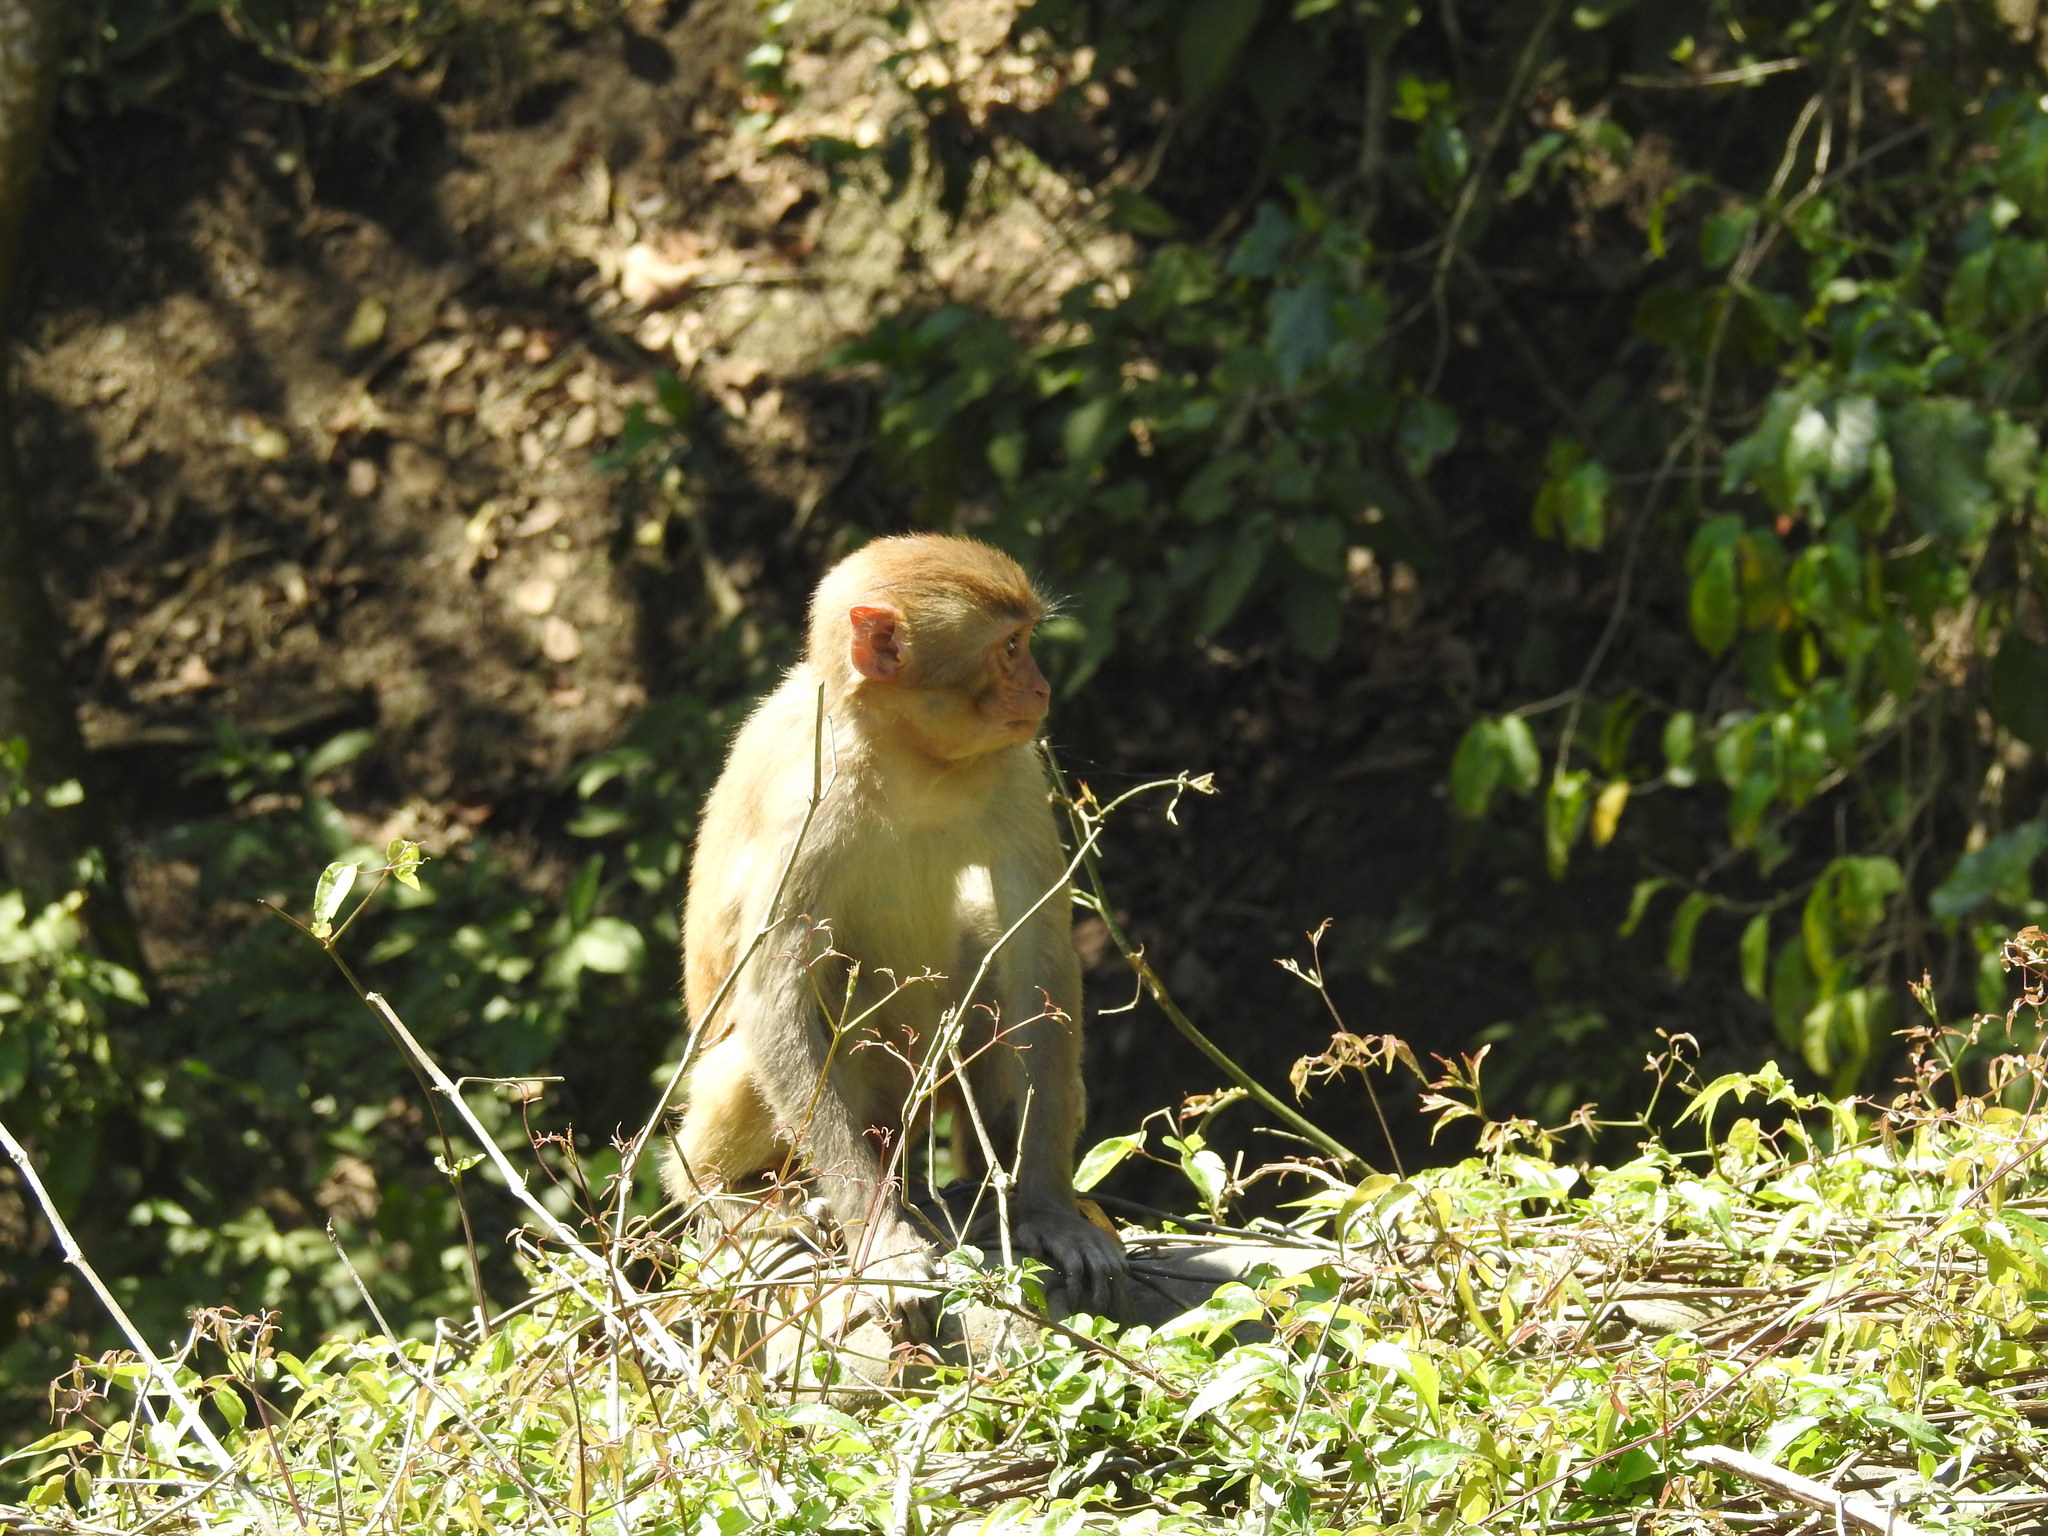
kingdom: Animalia
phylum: Chordata
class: Mammalia
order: Primates
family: Cercopithecidae
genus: Macaca
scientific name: Macaca mulatta
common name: Rhesus monkey
